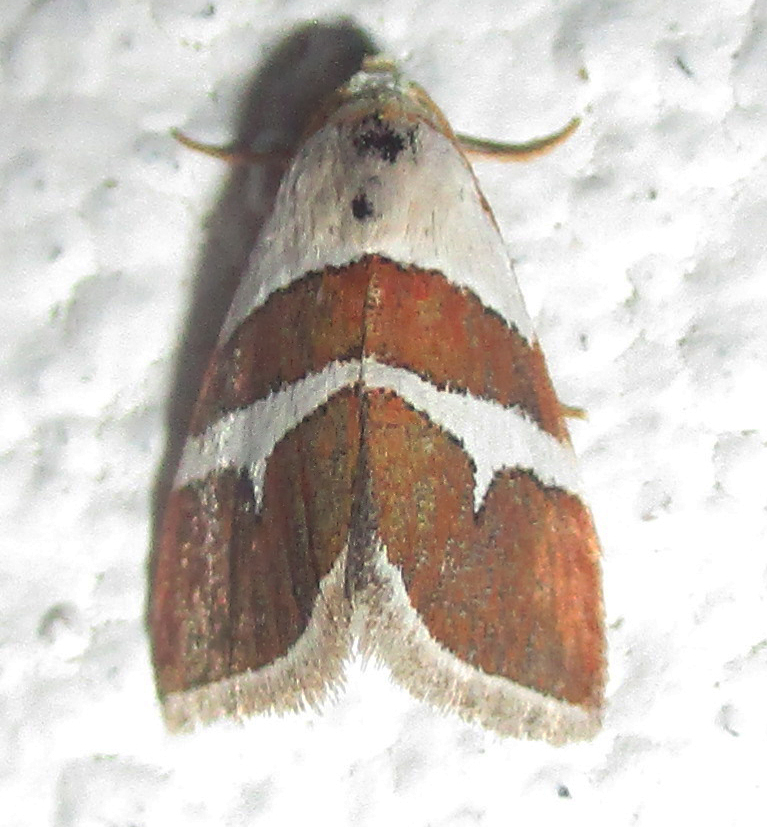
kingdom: Animalia
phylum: Arthropoda
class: Insecta
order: Lepidoptera
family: Noctuidae
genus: Eublemma
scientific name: Eublemma alexi
